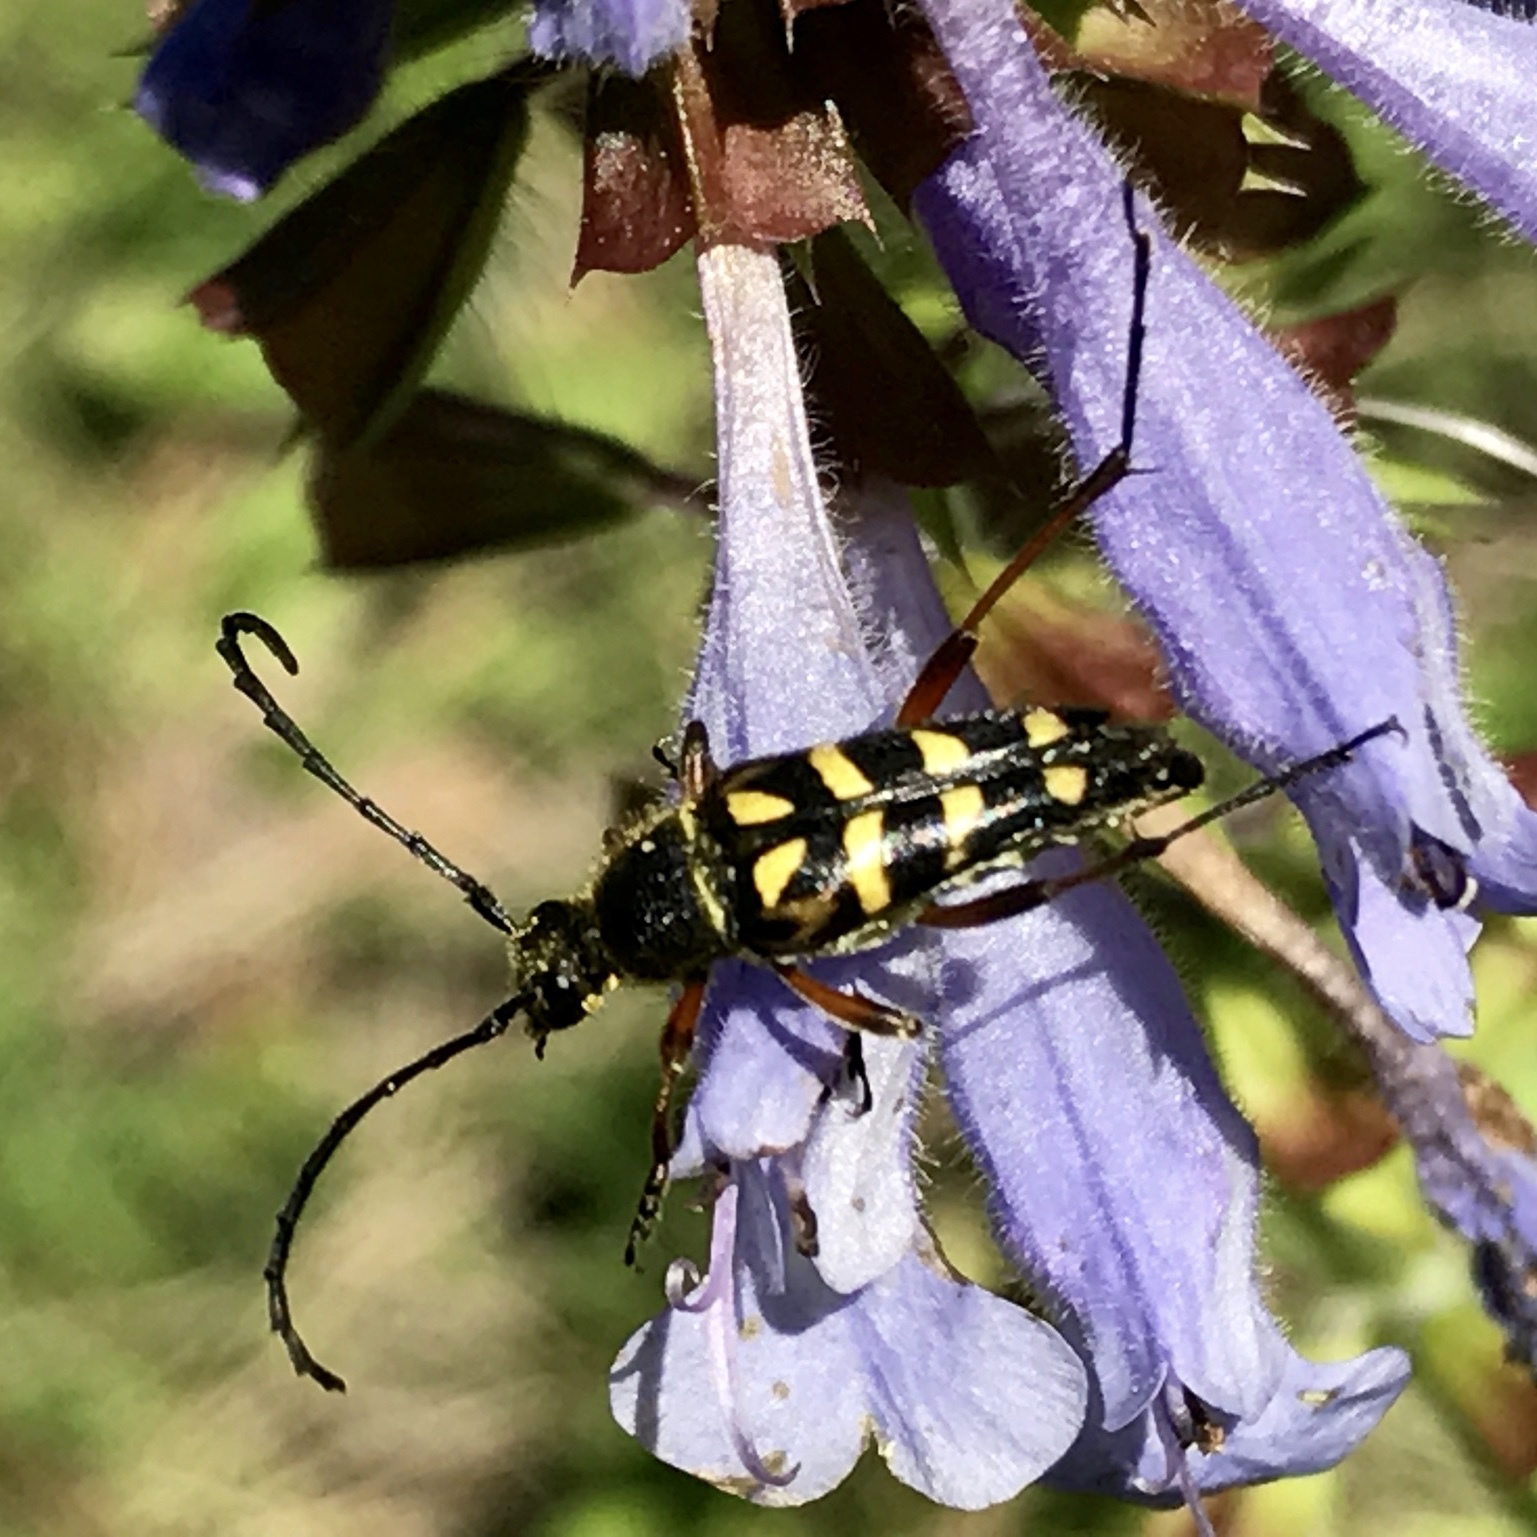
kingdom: Animalia
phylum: Arthropoda
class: Insecta
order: Coleoptera
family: Cerambycidae
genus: Typocerus
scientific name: Typocerus zebra
